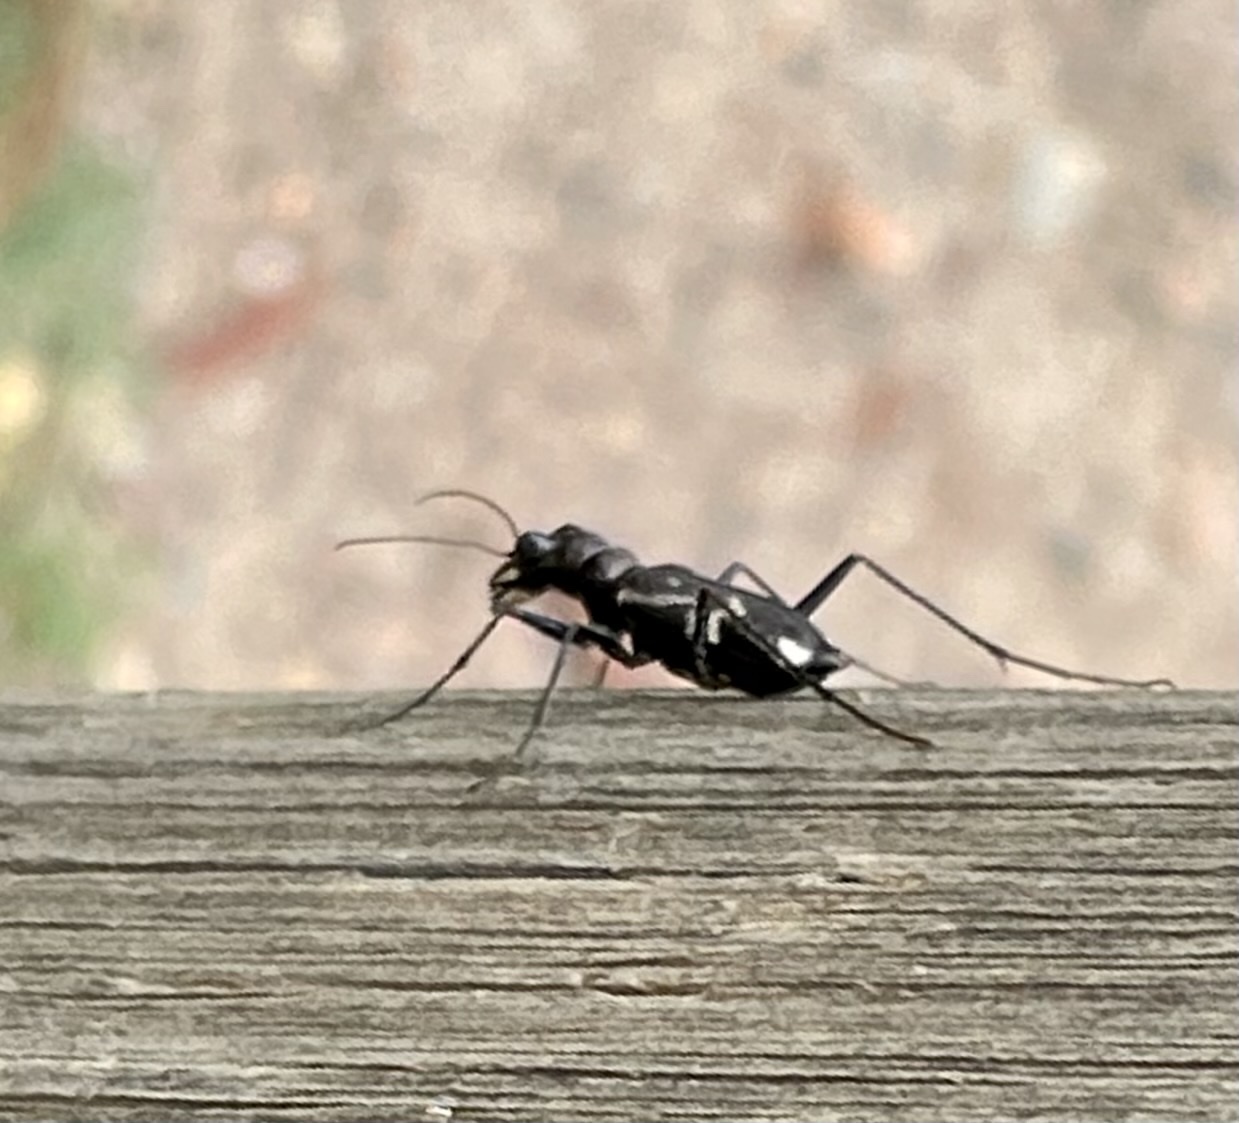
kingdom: Animalia
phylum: Arthropoda
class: Insecta
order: Coleoptera
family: Carabidae
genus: Distipsidera
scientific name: Distipsidera undulata
